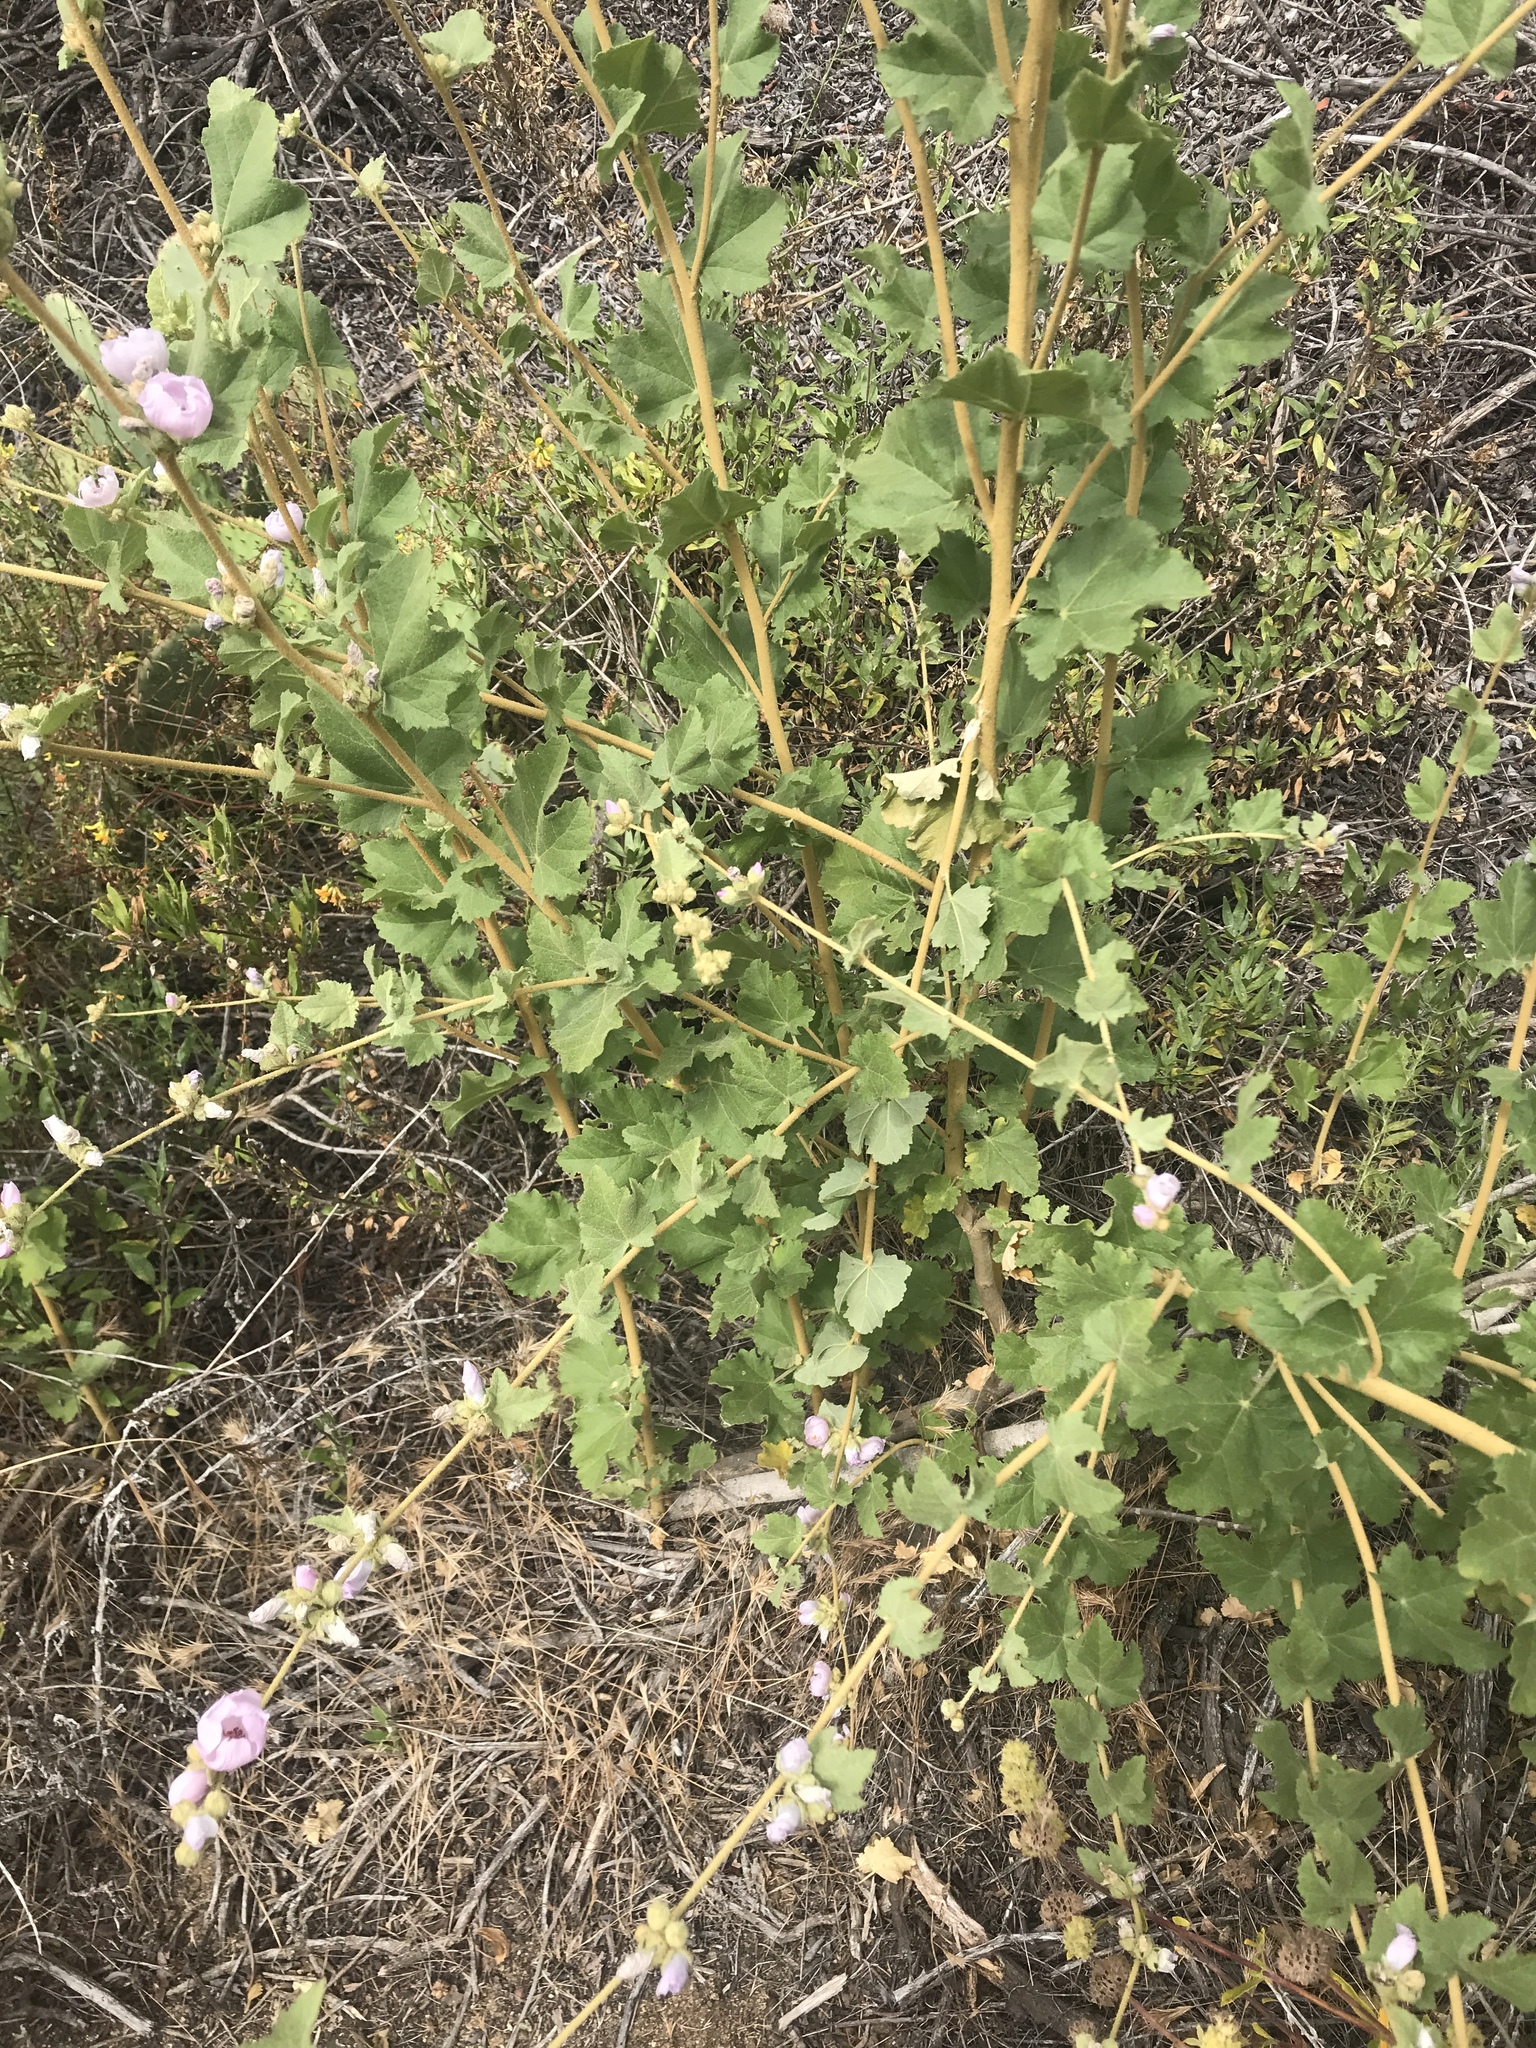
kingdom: Plantae
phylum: Tracheophyta
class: Magnoliopsida
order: Malvales
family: Malvaceae
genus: Malacothamnus
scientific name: Malacothamnus fasciculatus
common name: Sant cruz island bush-mallow
